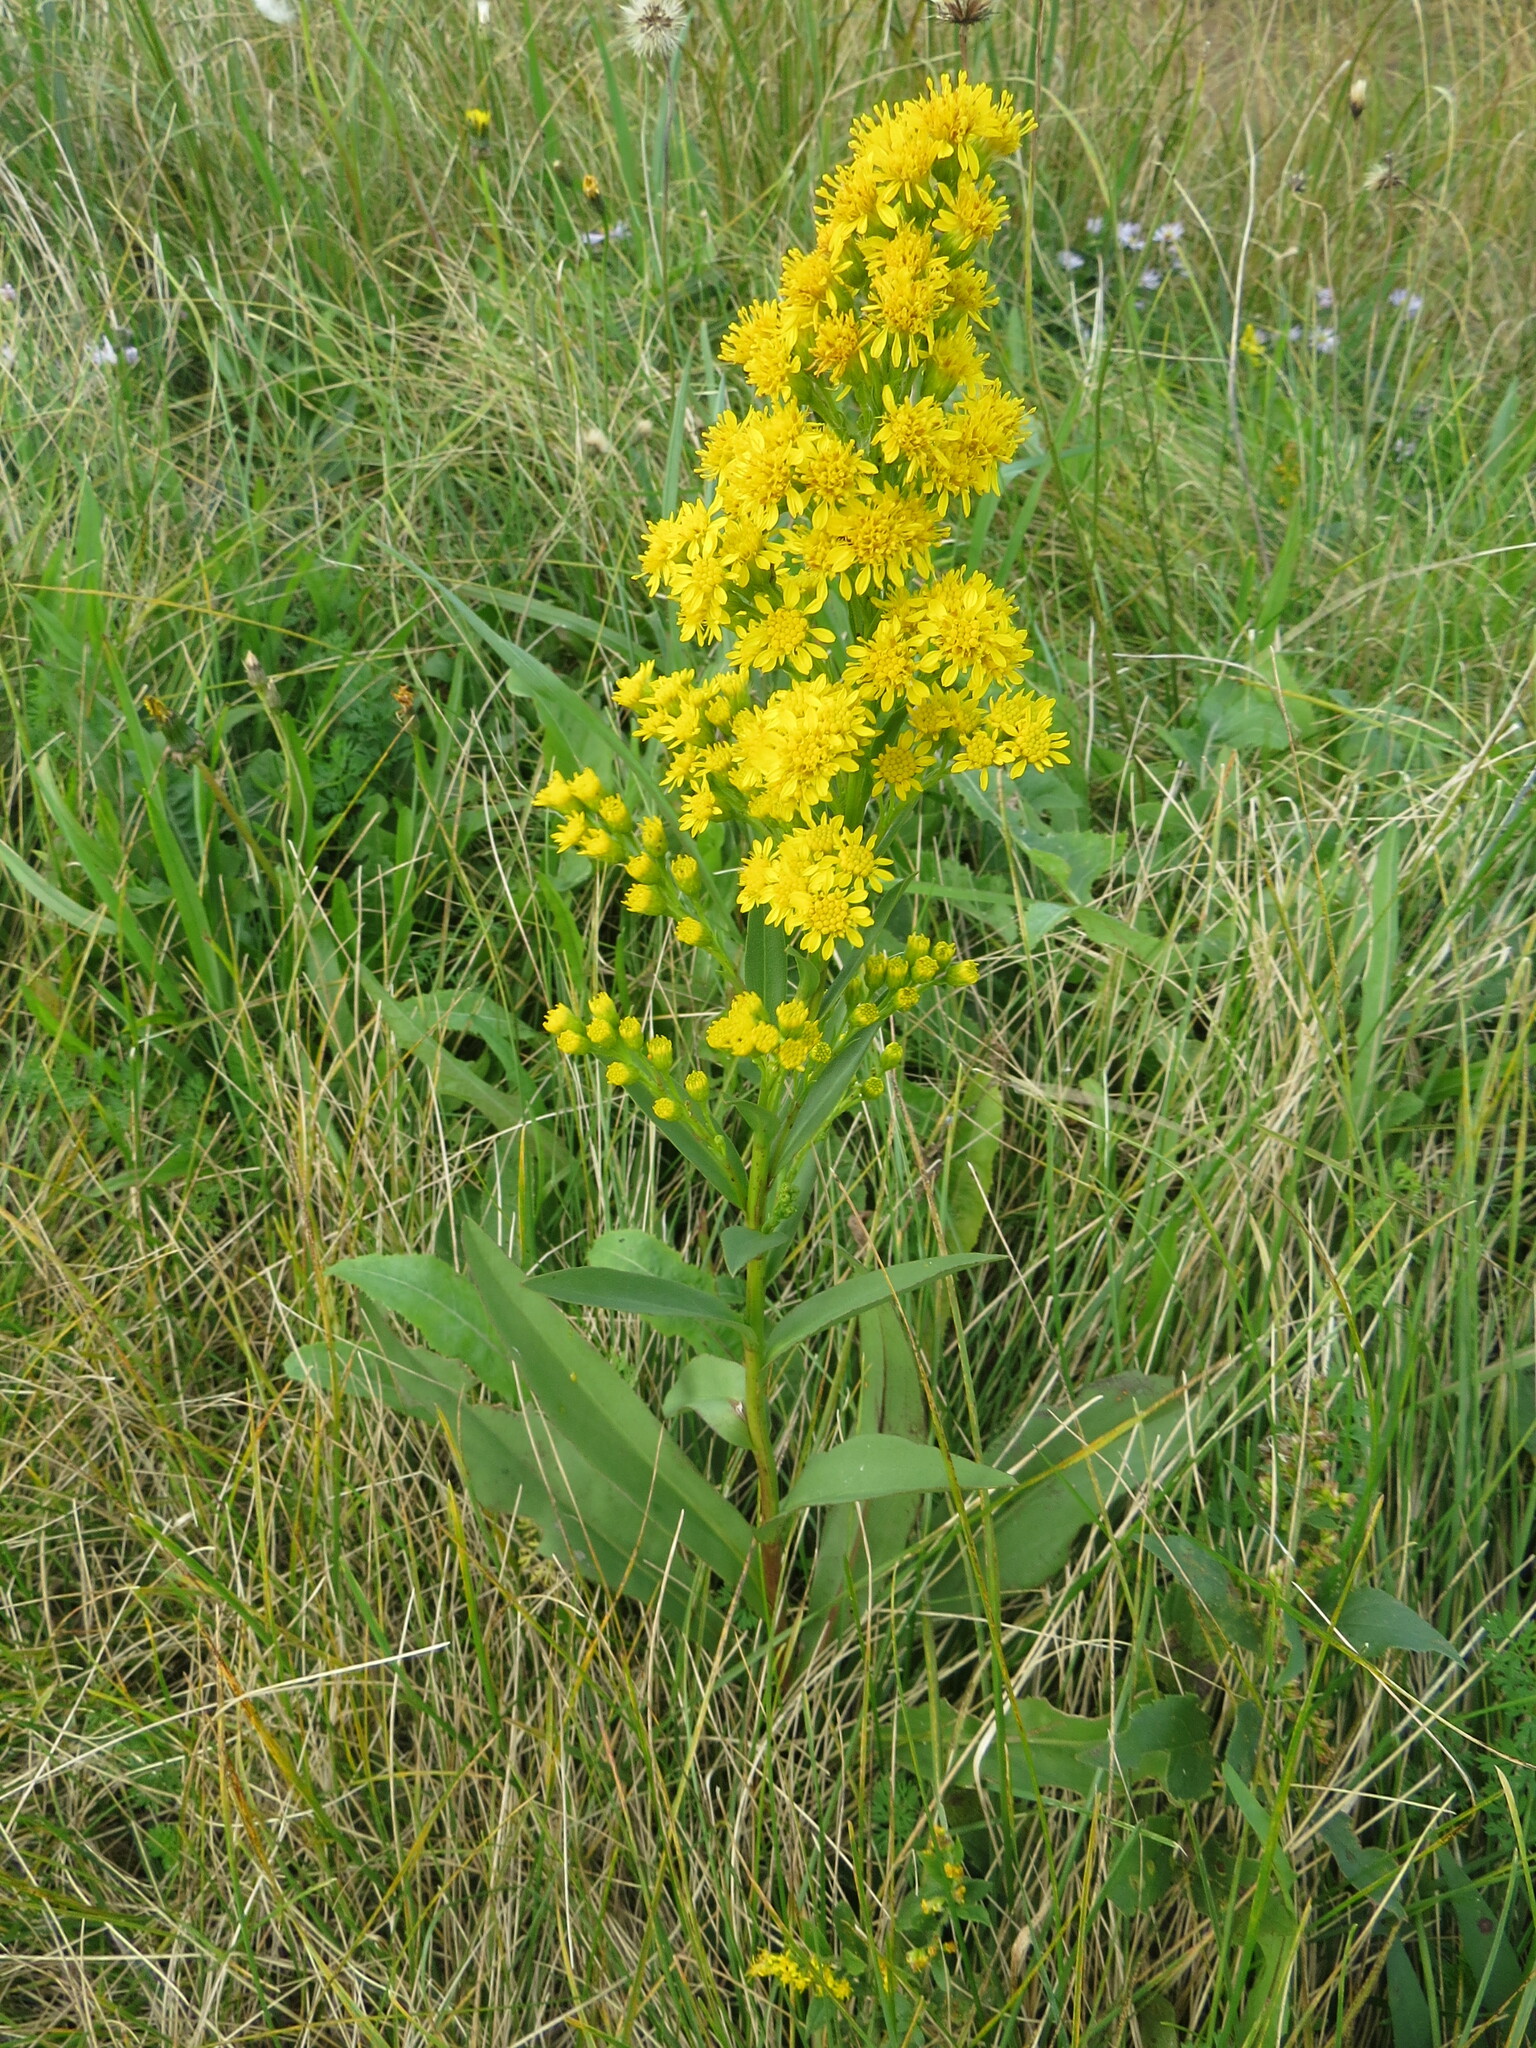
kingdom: Plantae
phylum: Tracheophyta
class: Magnoliopsida
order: Asterales
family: Asteraceae
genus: Solidago
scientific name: Solidago sempervirens
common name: Salt-marsh goldenrod
